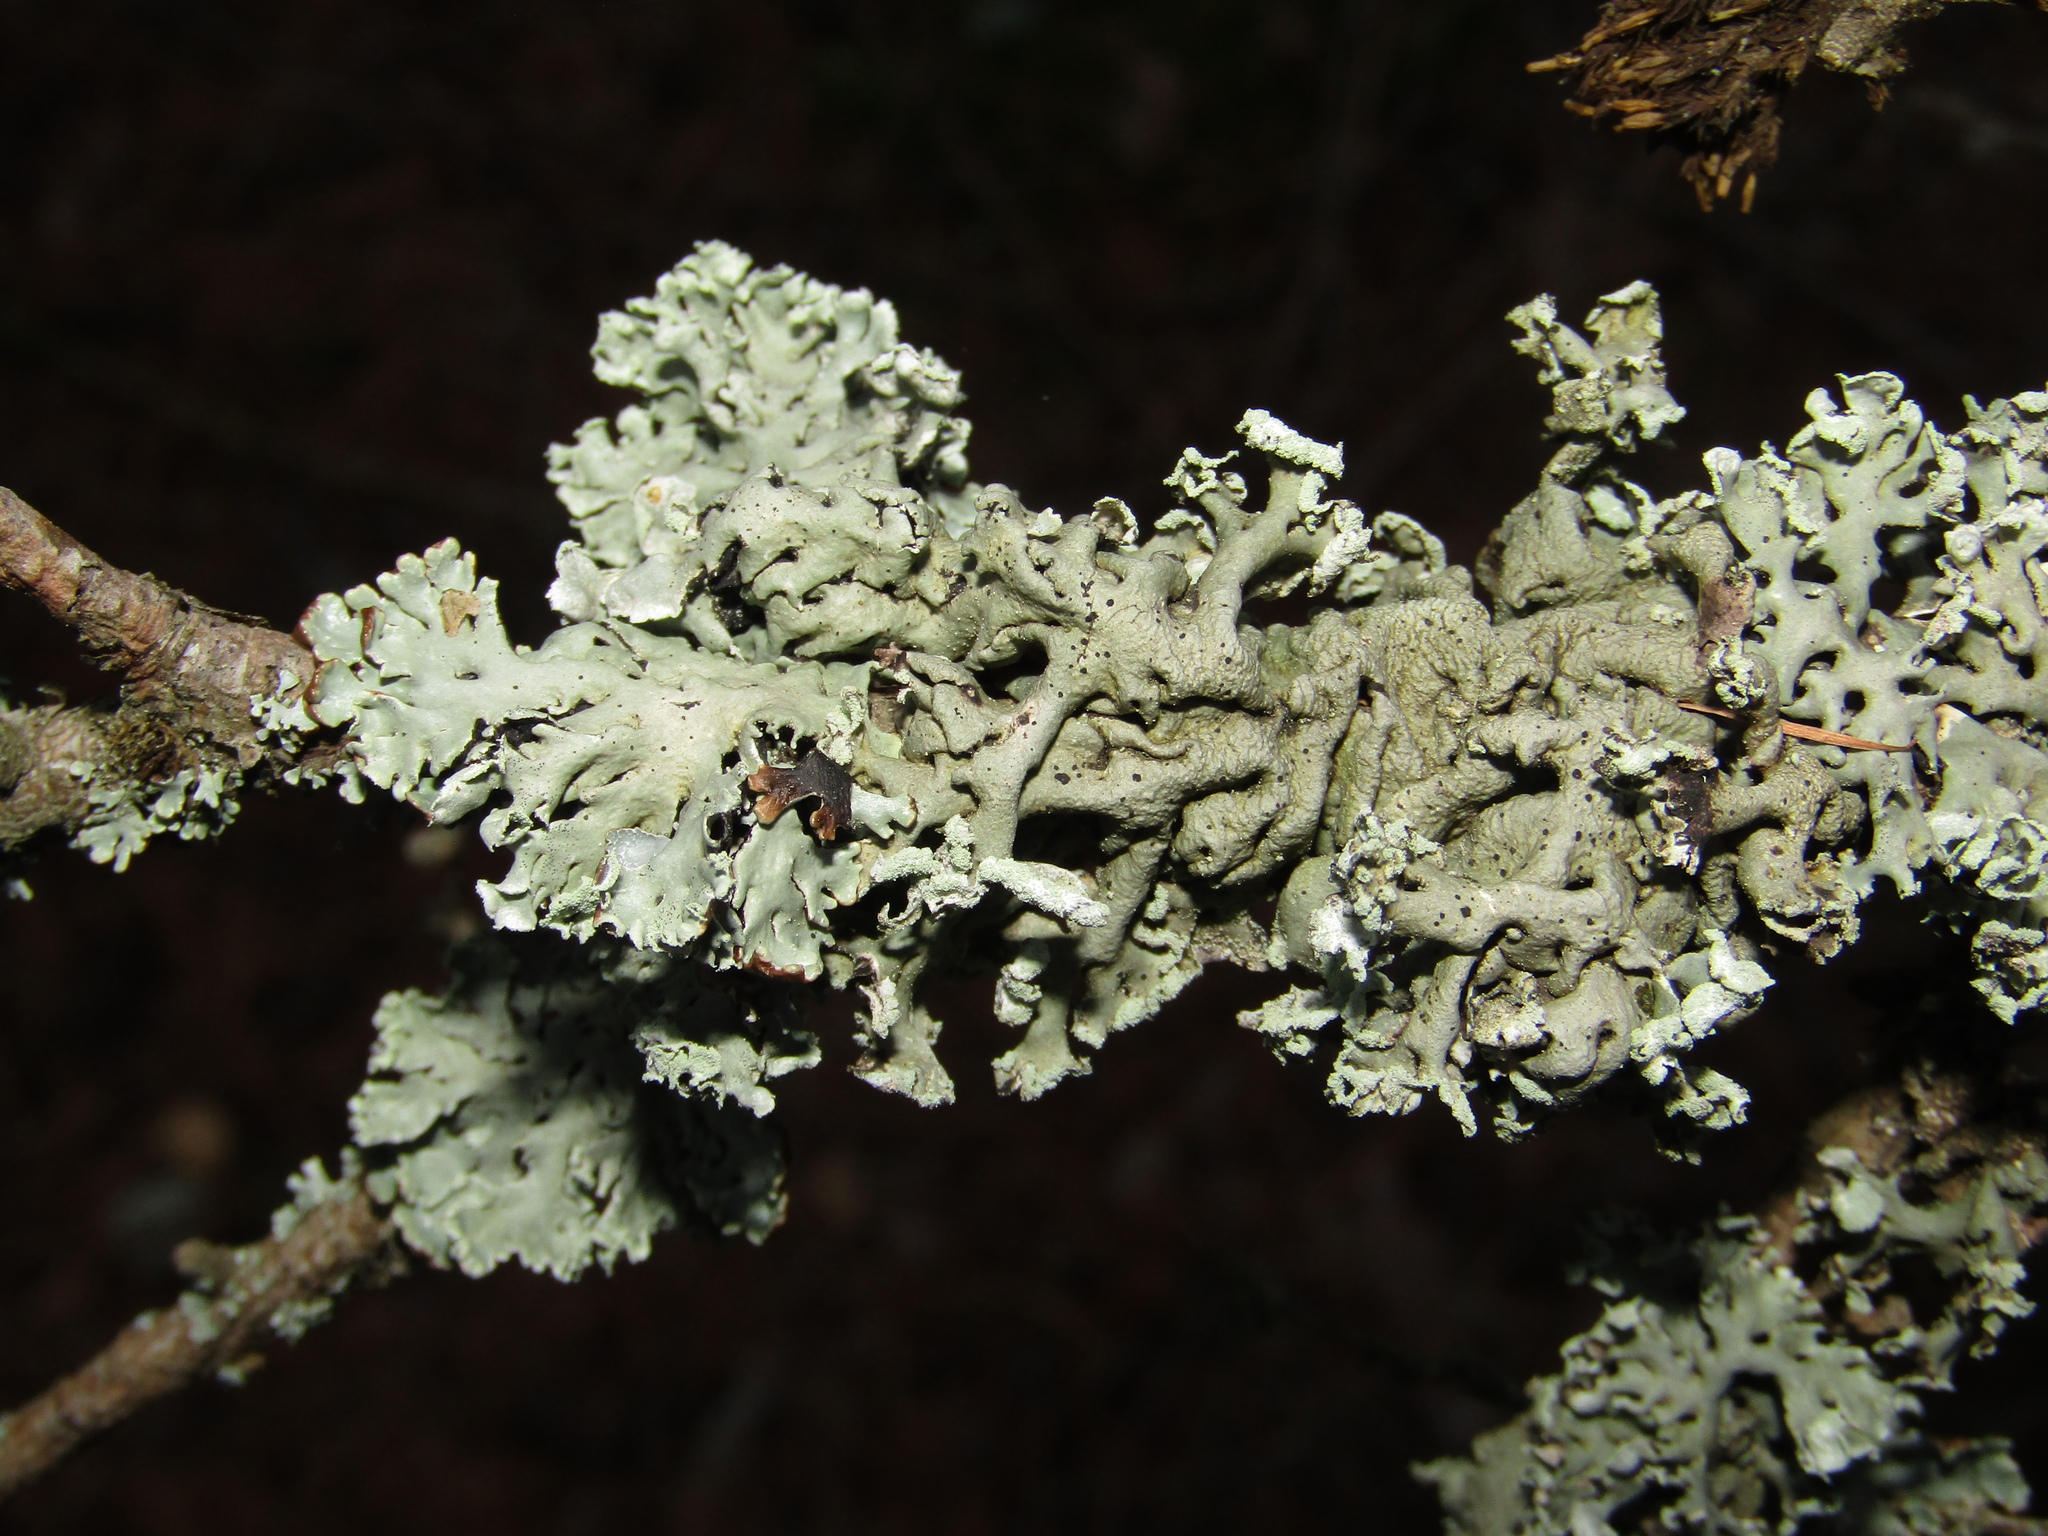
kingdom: Fungi
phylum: Ascomycota
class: Lecanoromycetes
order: Lecanorales
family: Parmeliaceae
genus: Hypogymnia
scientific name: Hypogymnia physodes
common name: Dark crottle
